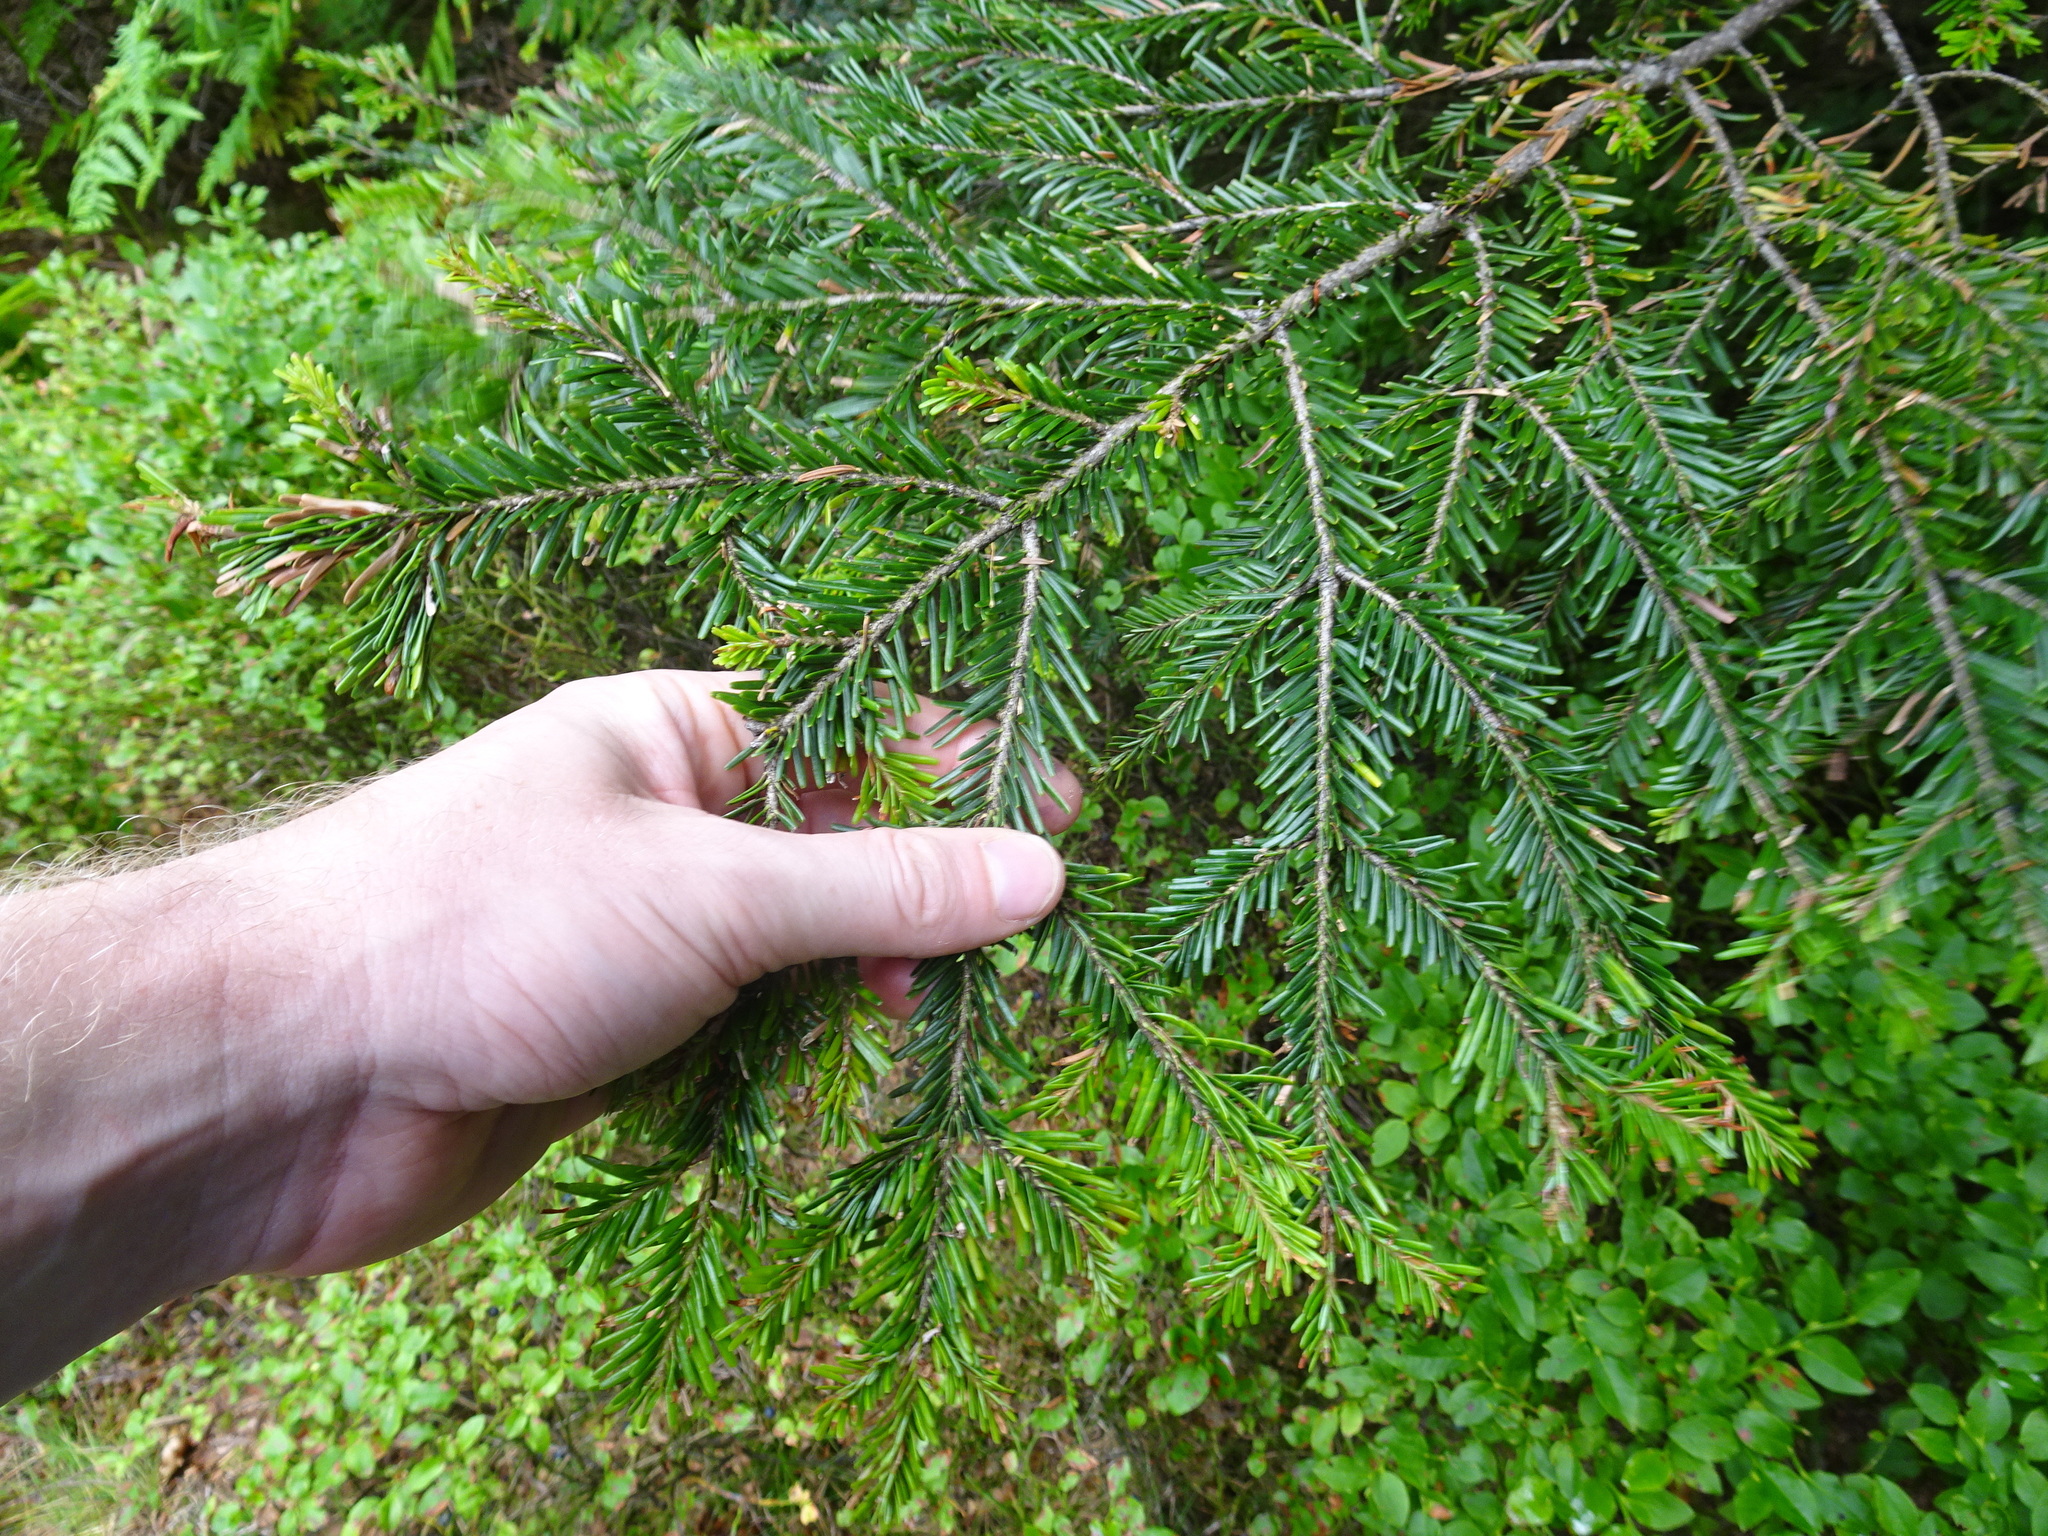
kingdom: Plantae
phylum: Tracheophyta
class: Pinopsida
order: Pinales
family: Pinaceae
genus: Abies
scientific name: Abies alba
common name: Silver fir
